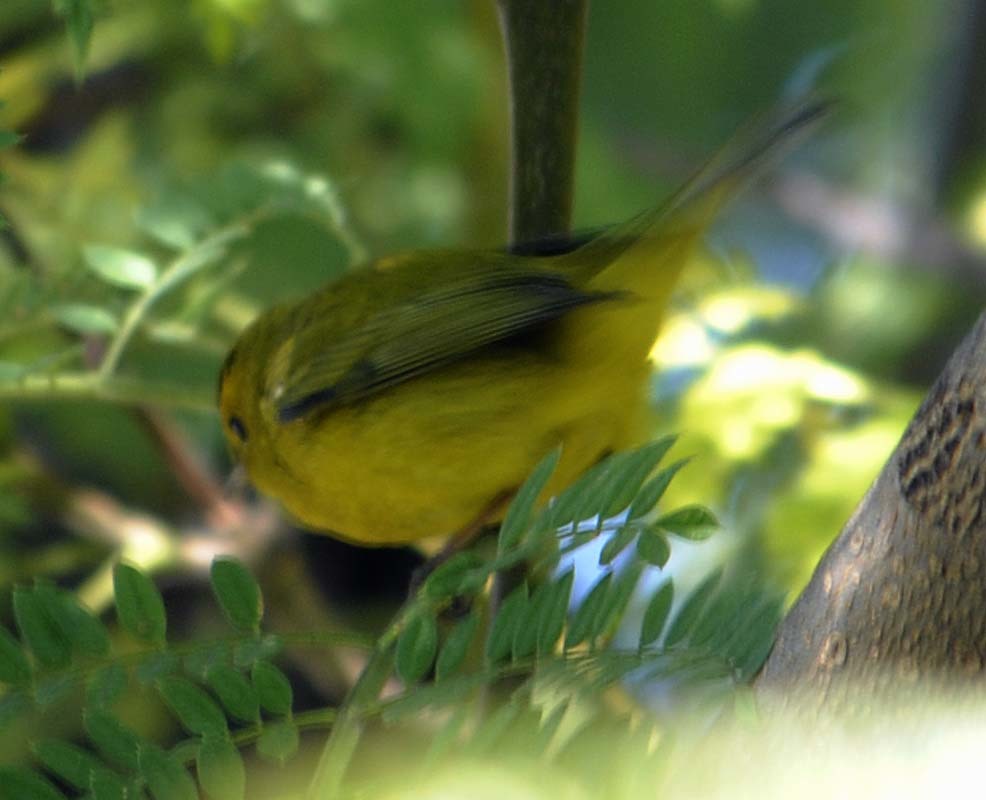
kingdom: Animalia
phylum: Chordata
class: Aves
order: Passeriformes
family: Parulidae
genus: Cardellina
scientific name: Cardellina pusilla
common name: Wilson's warbler
